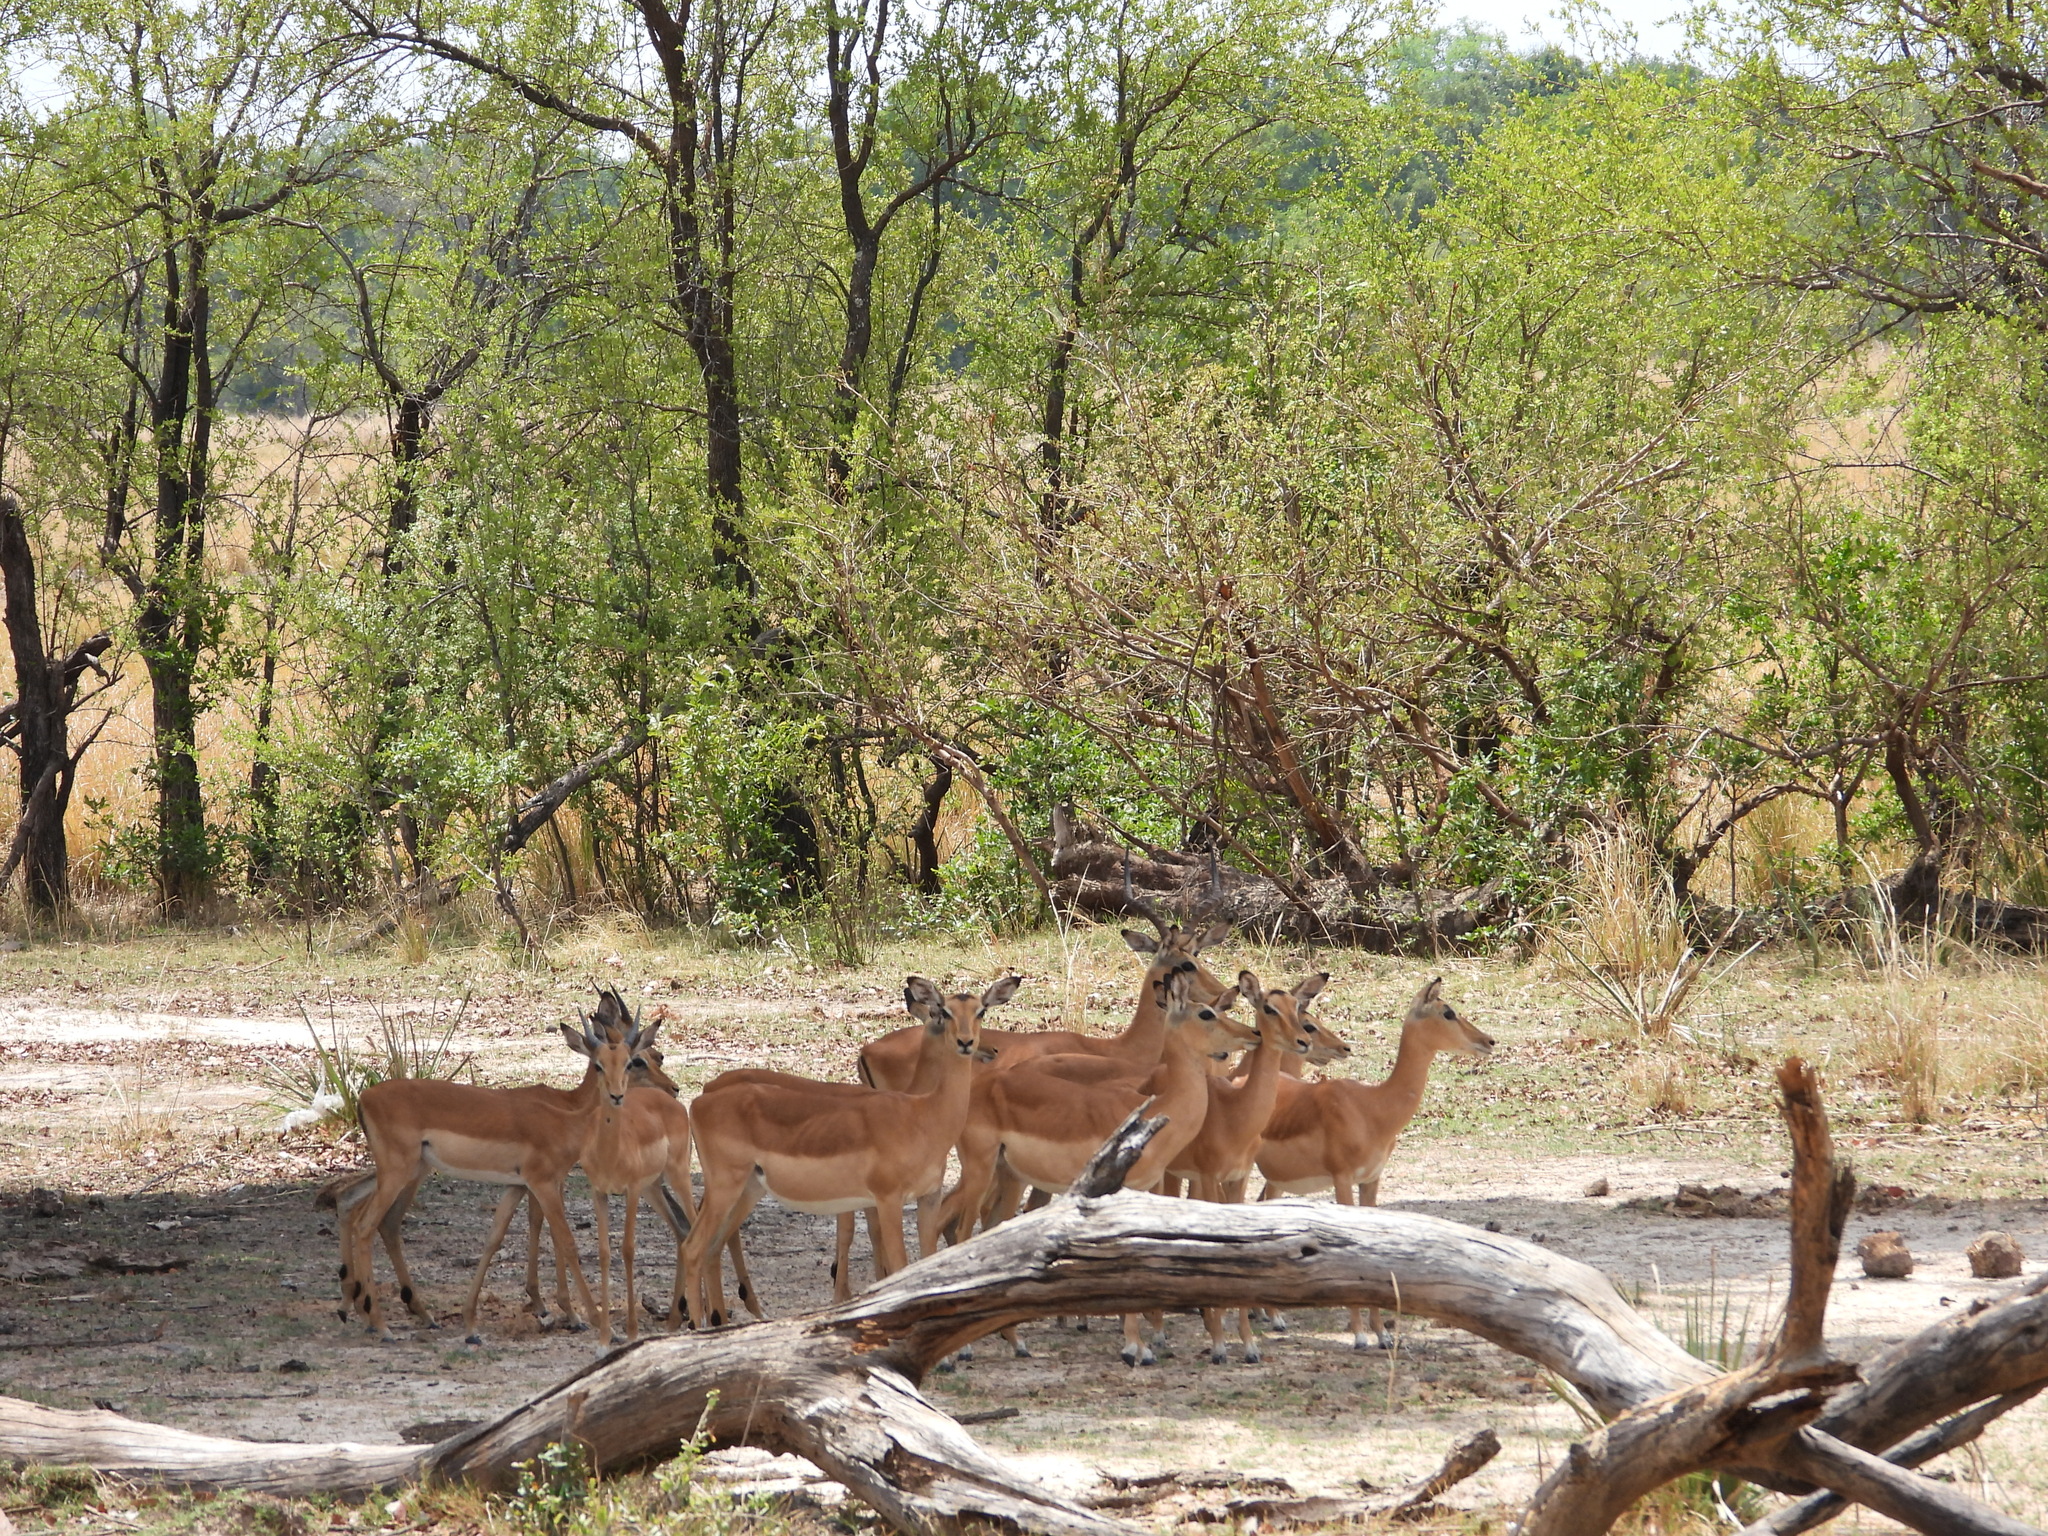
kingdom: Animalia
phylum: Chordata
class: Mammalia
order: Artiodactyla
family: Bovidae
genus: Aepyceros
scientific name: Aepyceros melampus
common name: Impala
